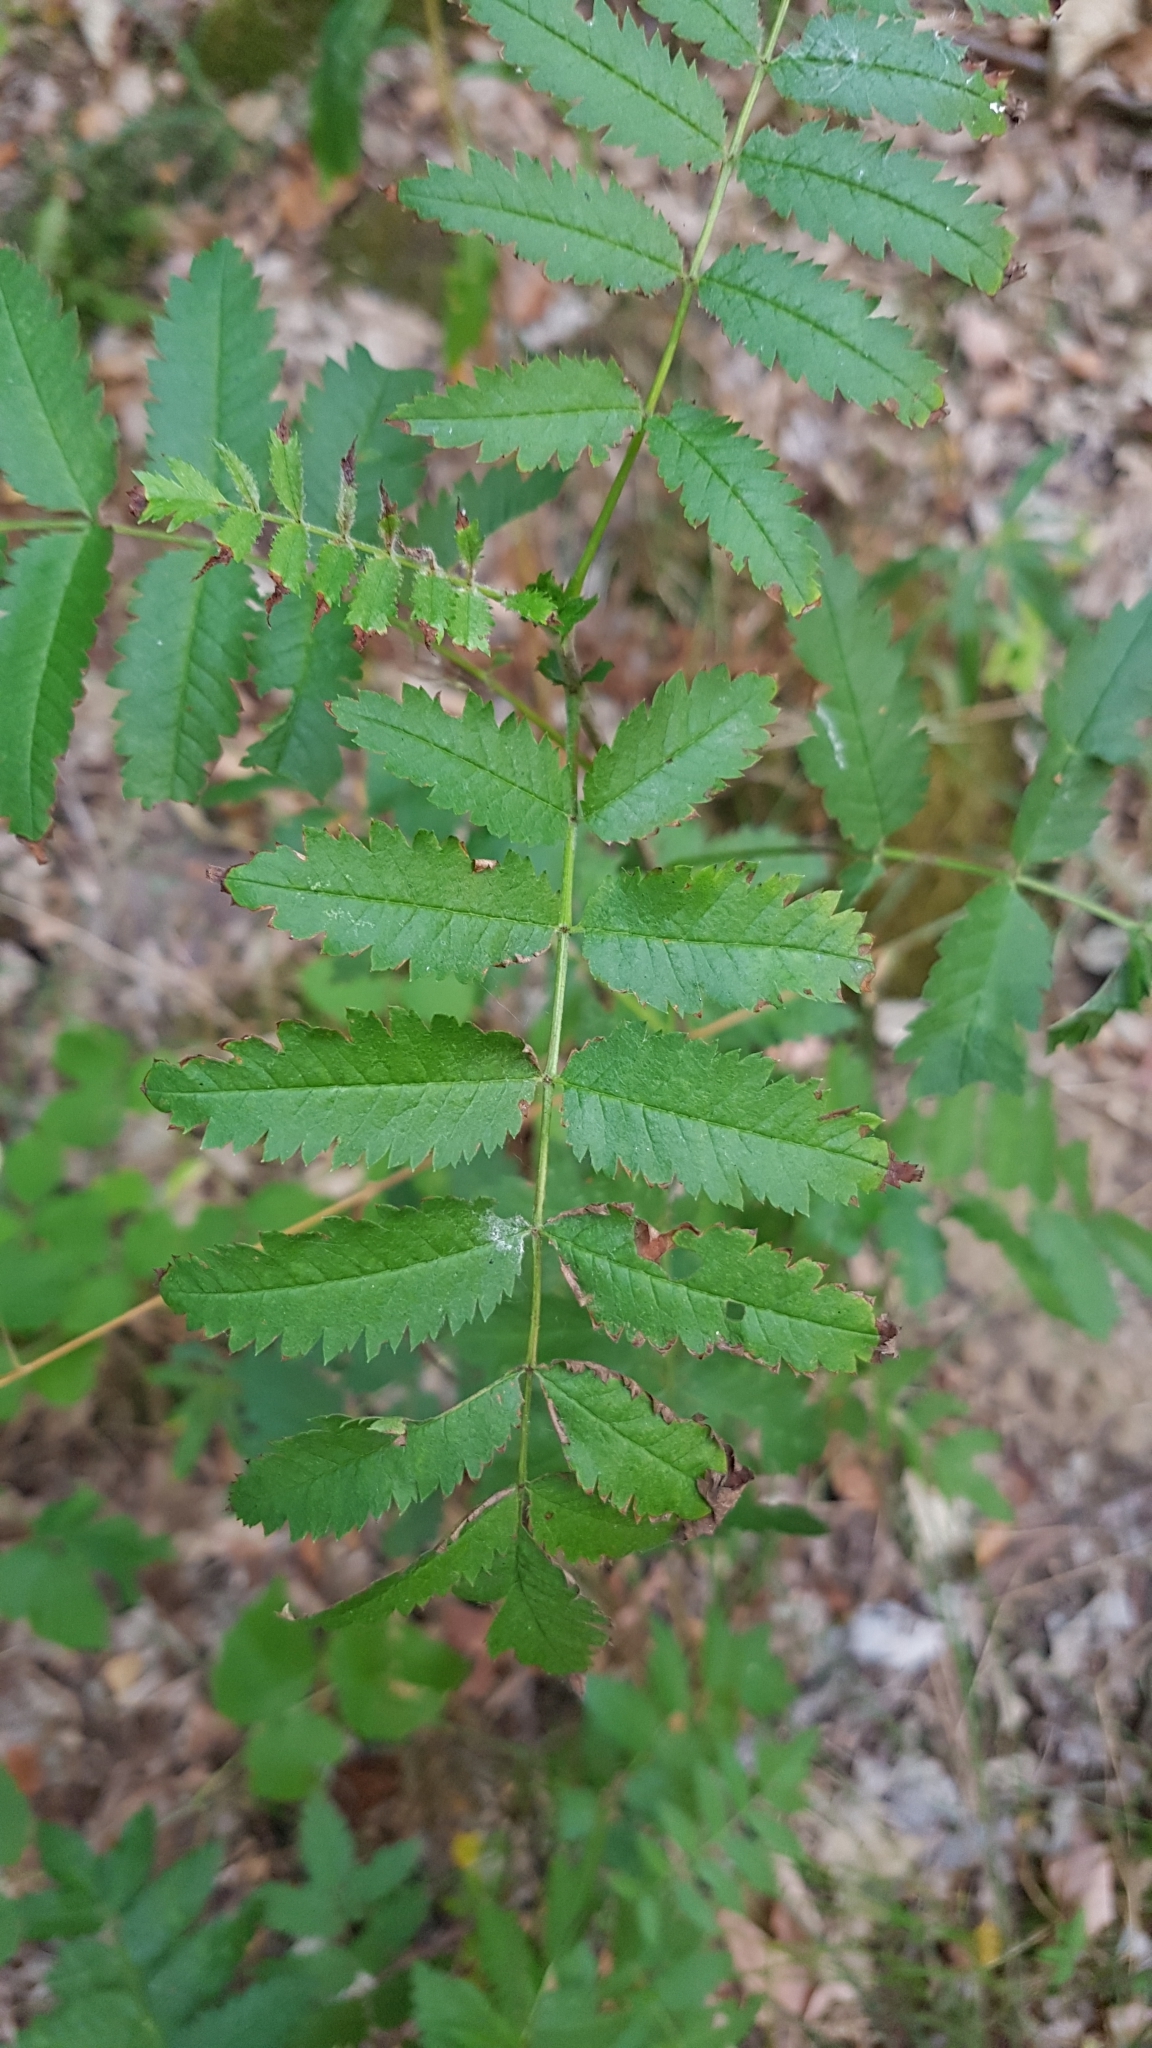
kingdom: Plantae
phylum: Tracheophyta
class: Magnoliopsida
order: Rosales
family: Rosaceae
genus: Sorbus
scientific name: Sorbus aucuparia
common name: Rowan
